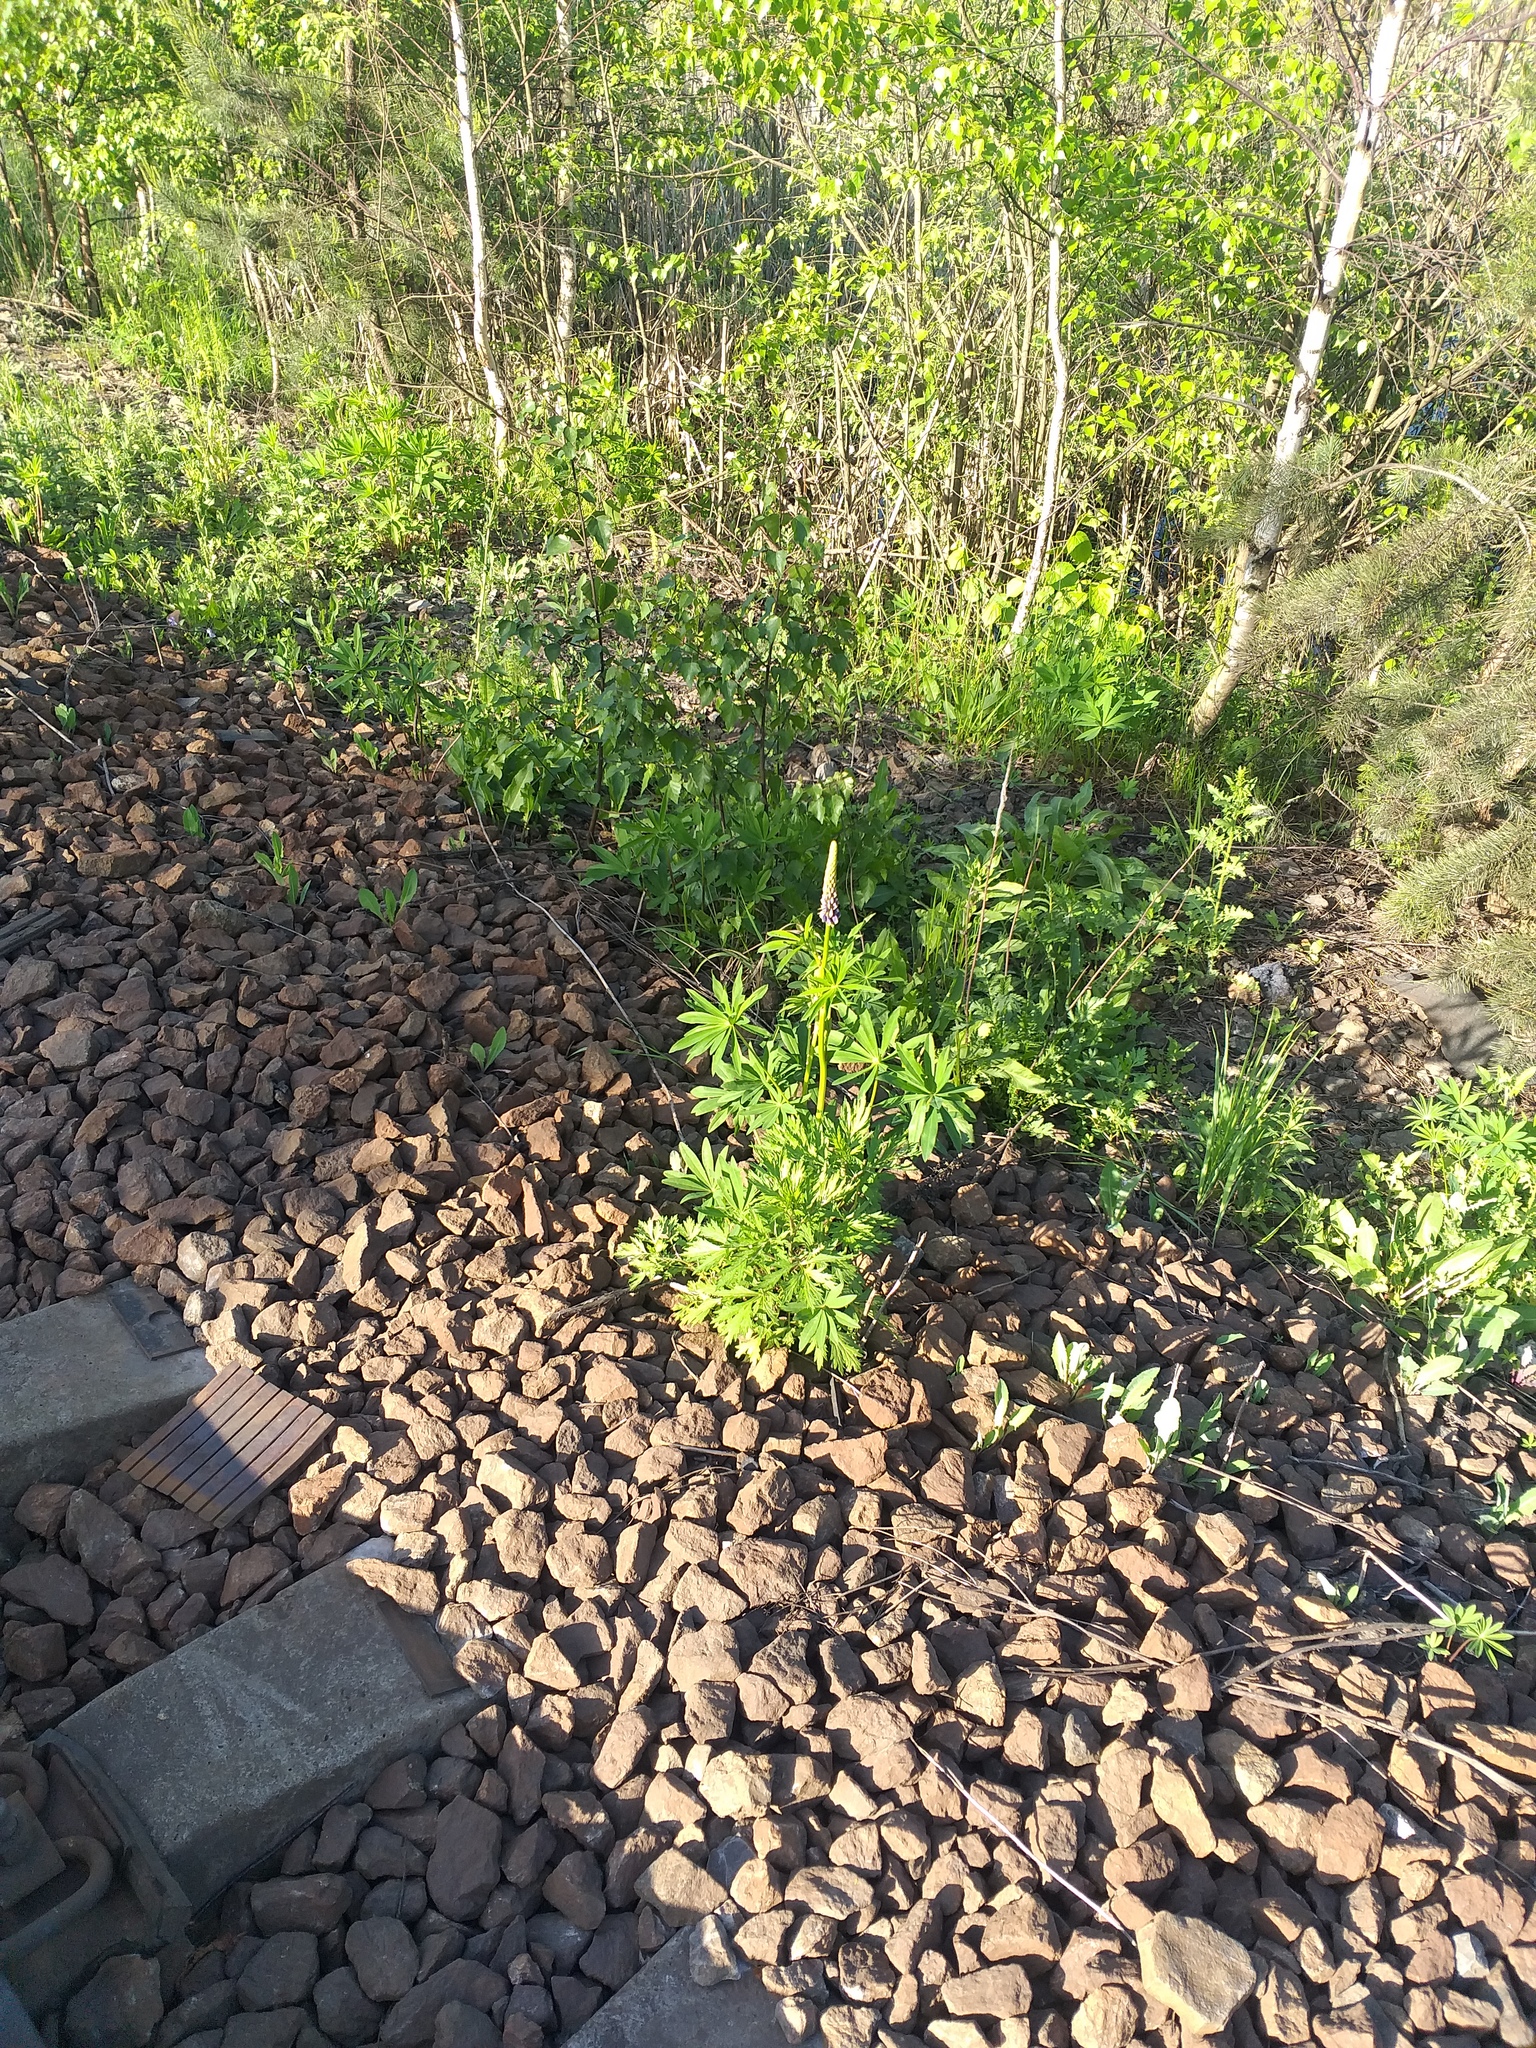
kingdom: Plantae
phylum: Tracheophyta
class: Magnoliopsida
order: Fabales
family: Fabaceae
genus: Lupinus
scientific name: Lupinus polyphyllus
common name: Garden lupin
